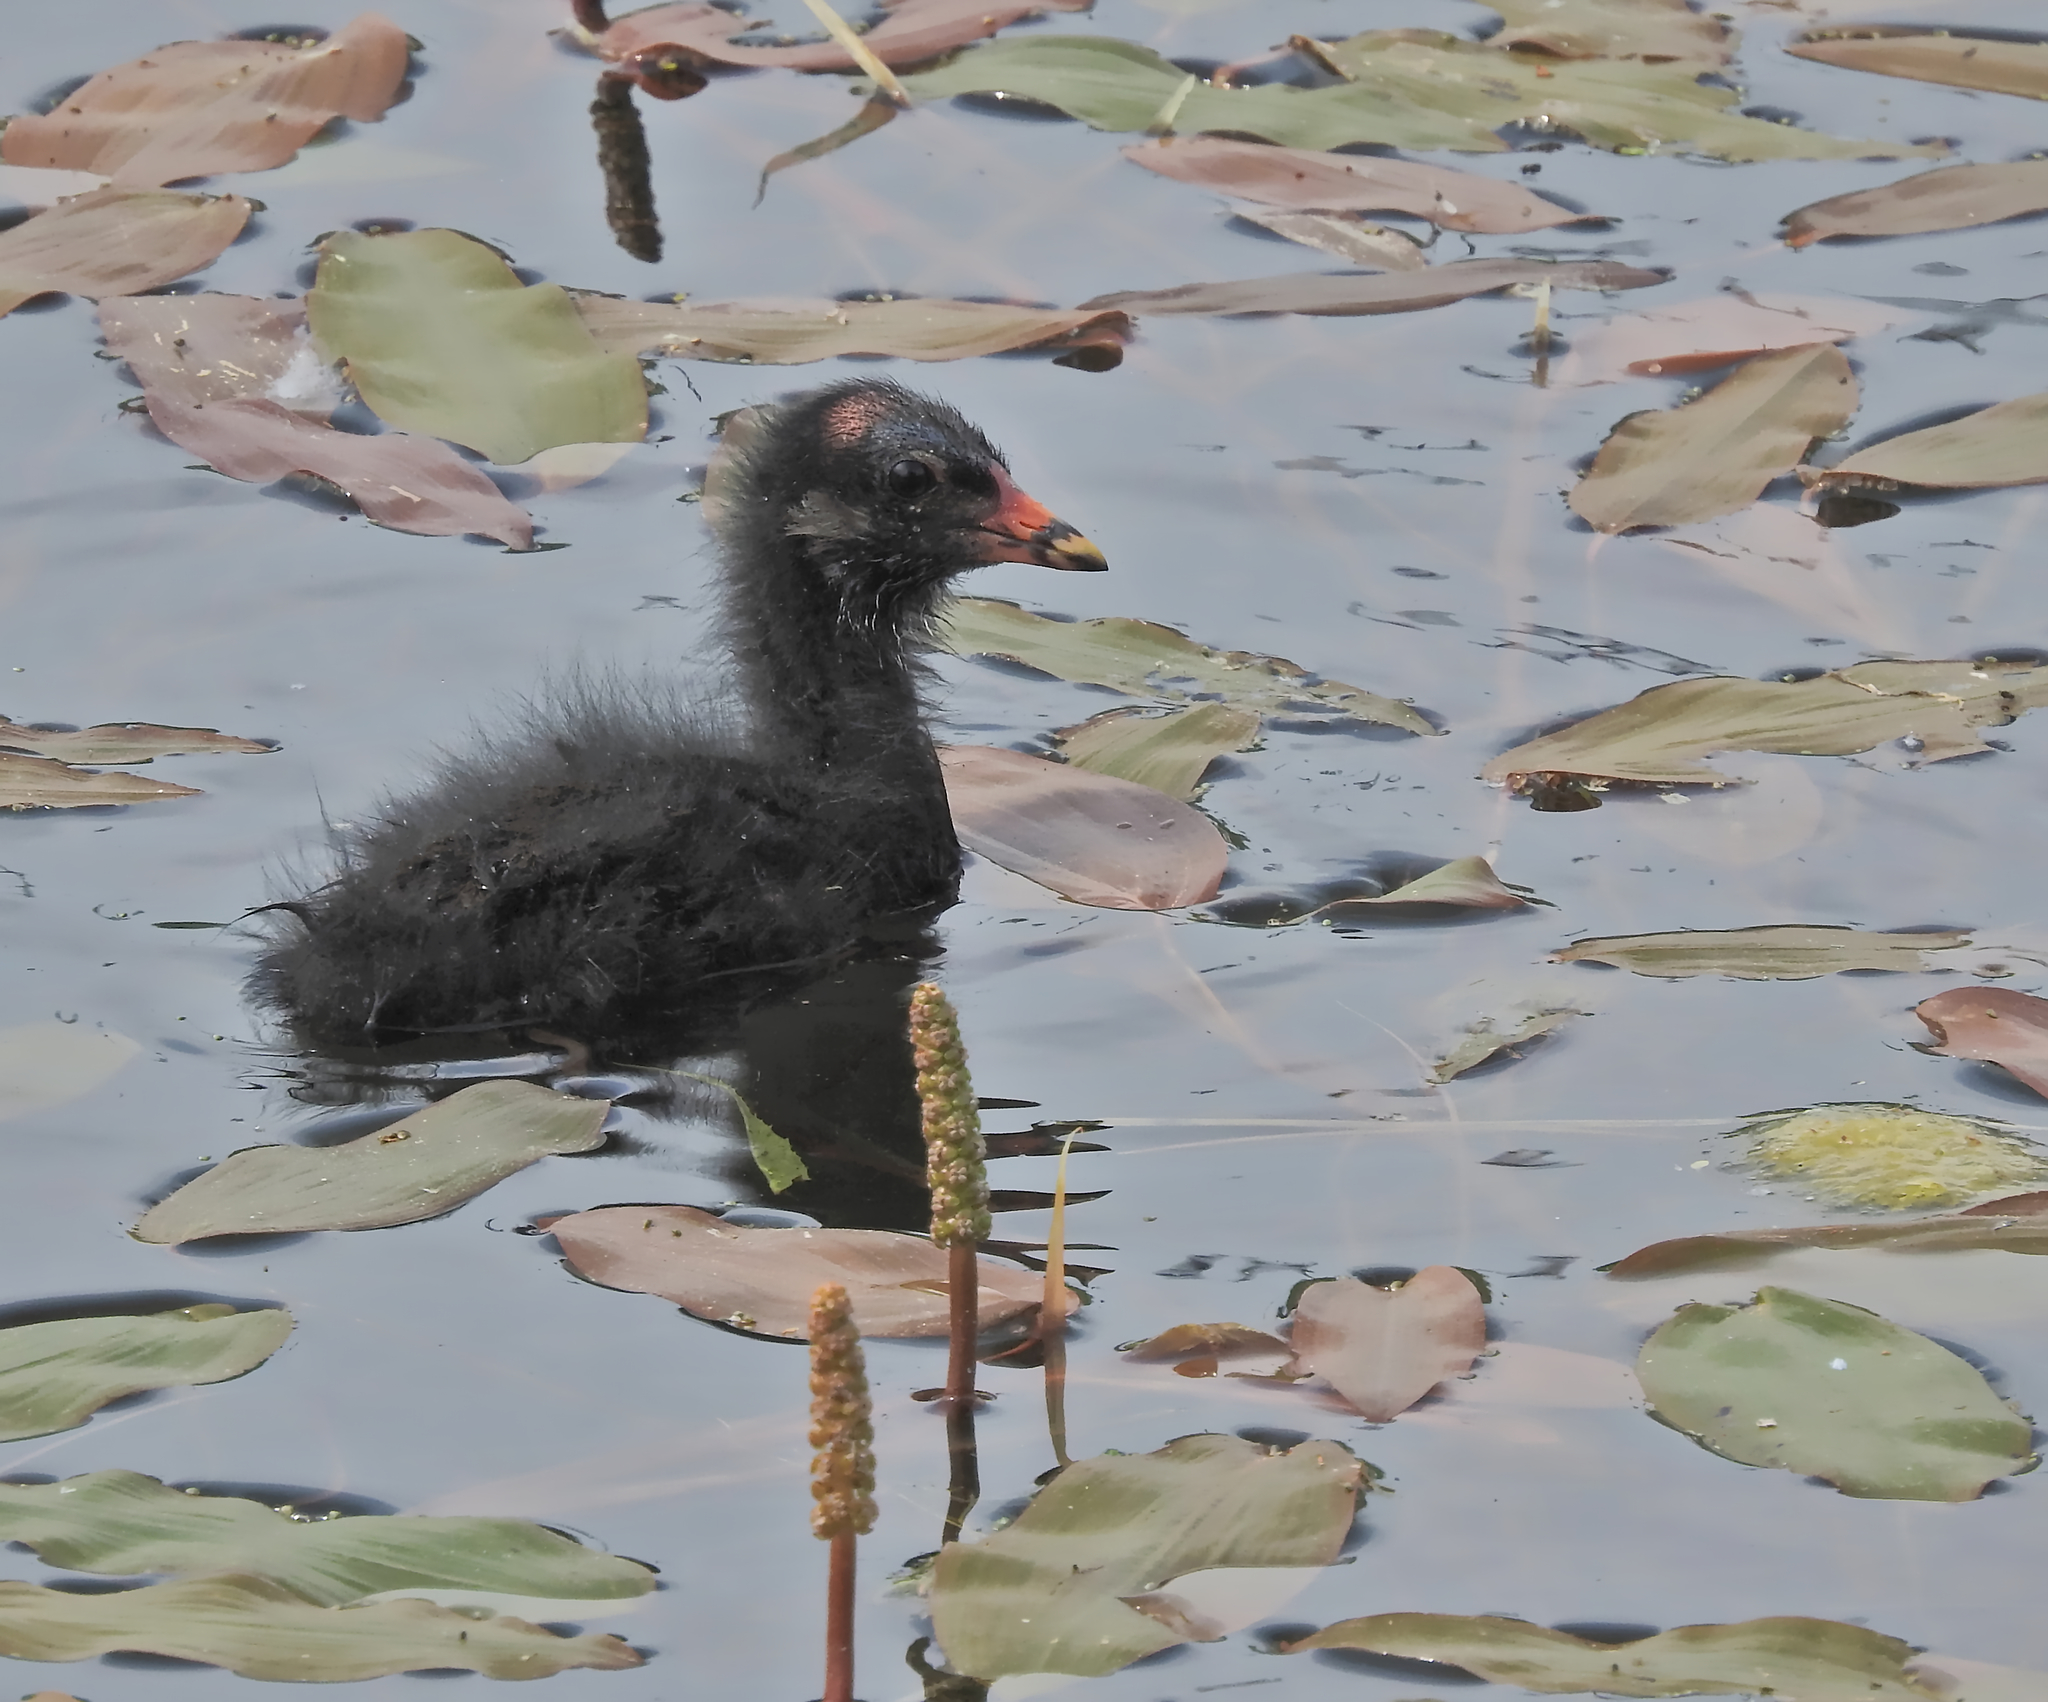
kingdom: Animalia
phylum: Chordata
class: Aves
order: Gruiformes
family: Rallidae
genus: Gallinula
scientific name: Gallinula chloropus
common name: Common moorhen
